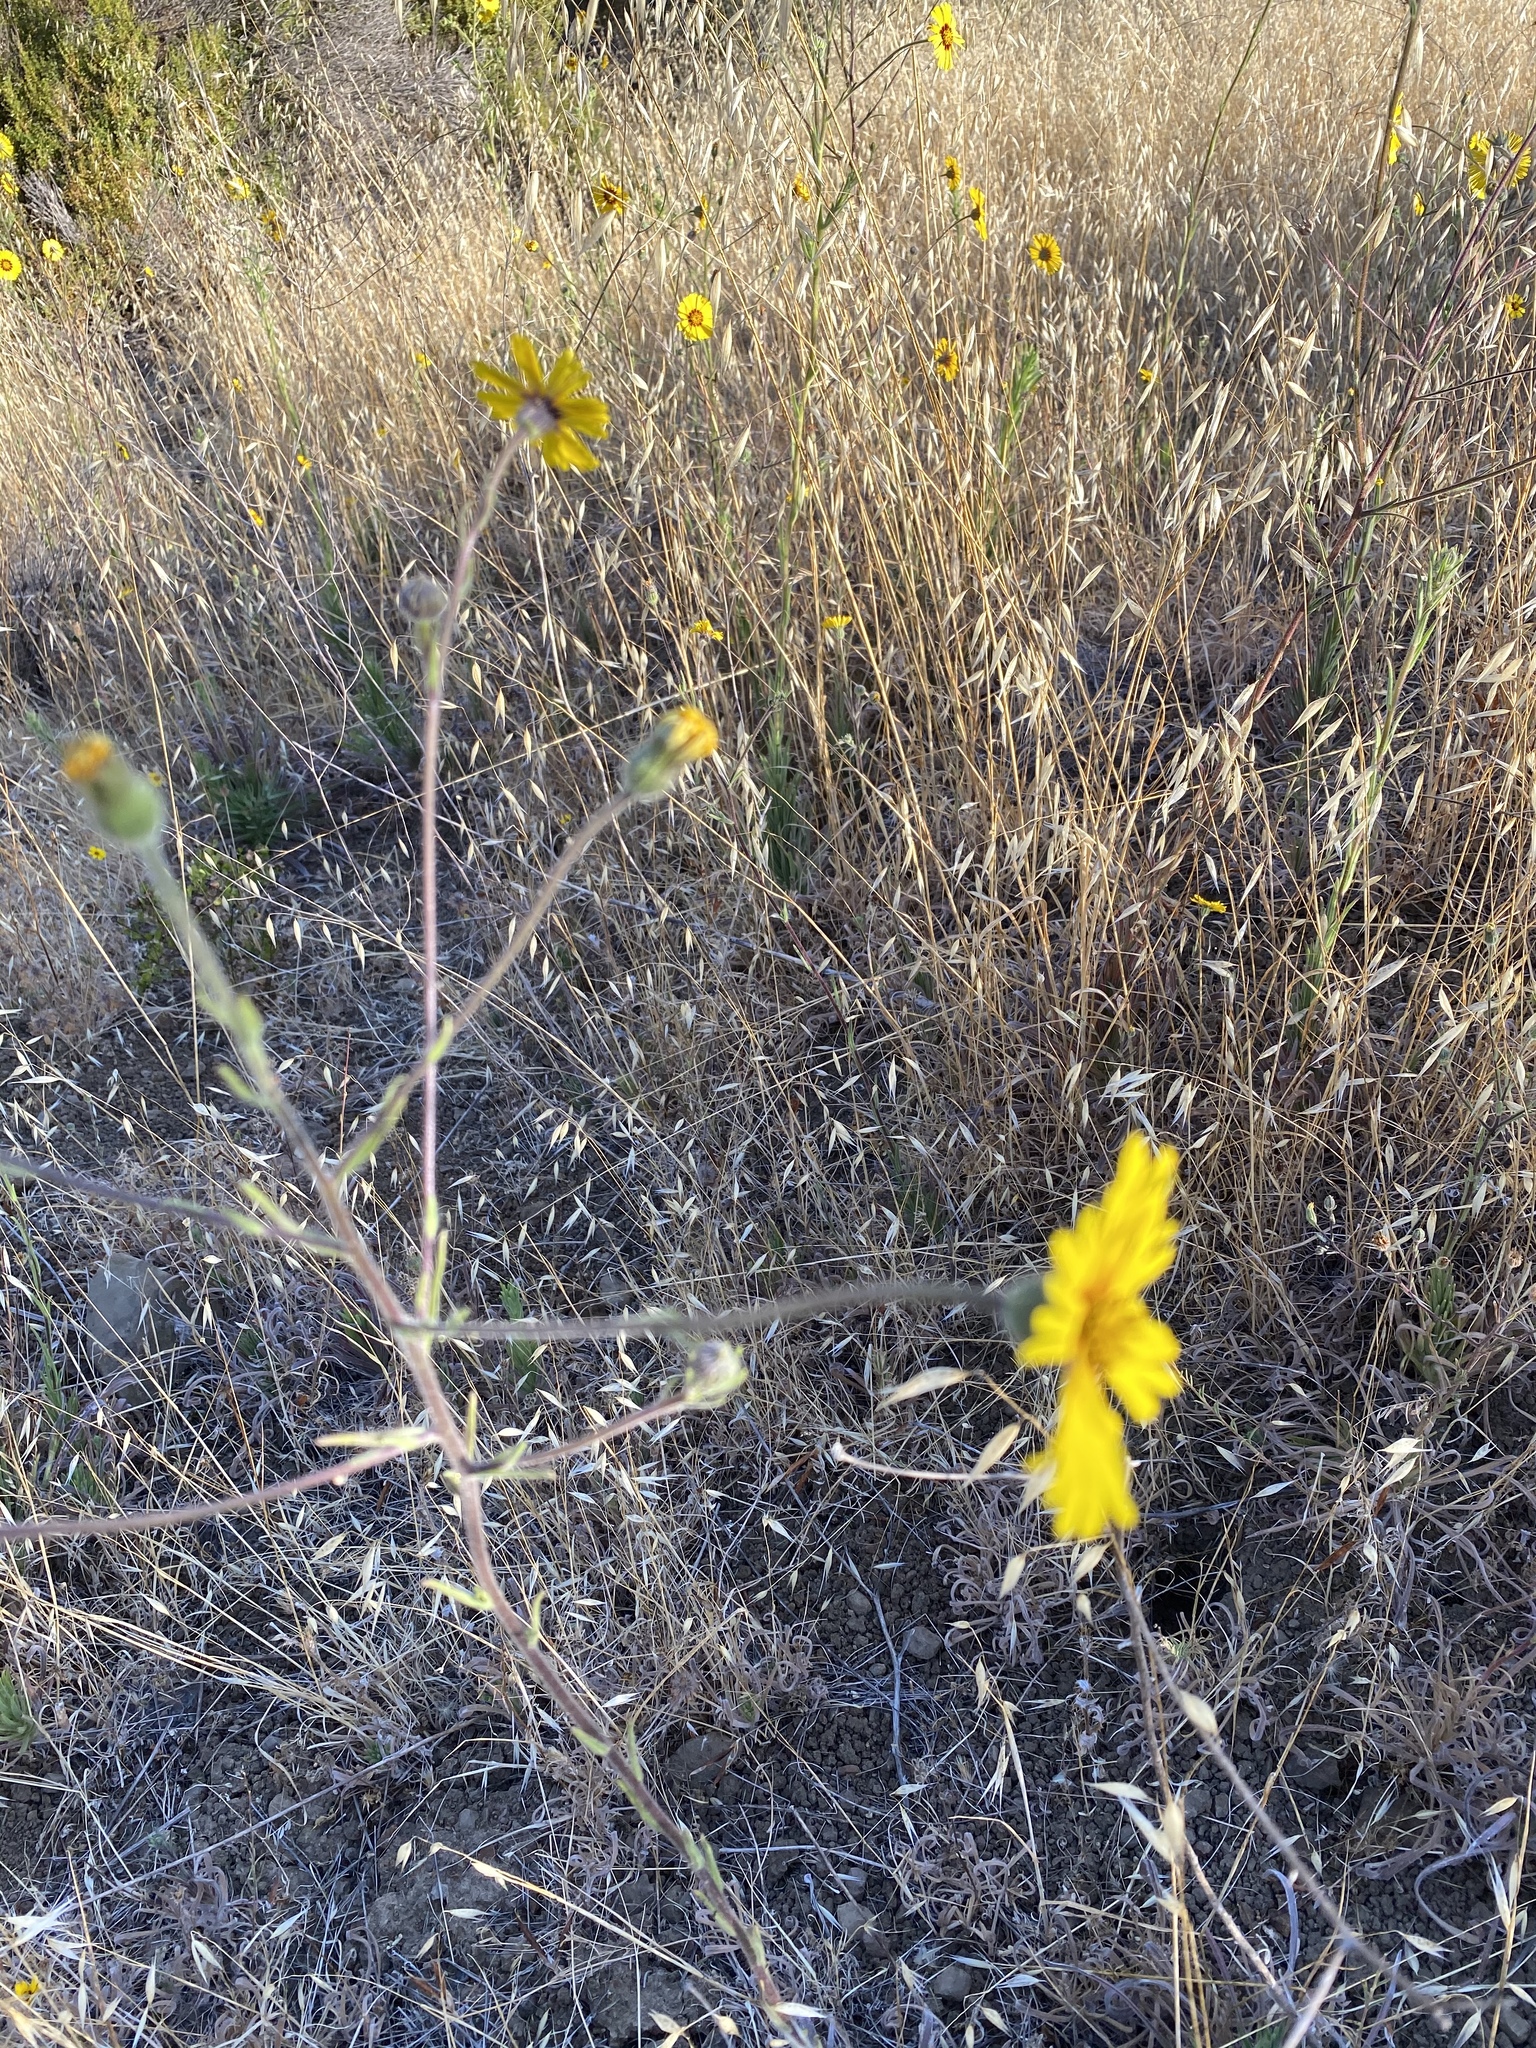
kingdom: Plantae
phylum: Tracheophyta
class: Magnoliopsida
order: Asterales
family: Asteraceae
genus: Madia
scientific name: Madia elegans
